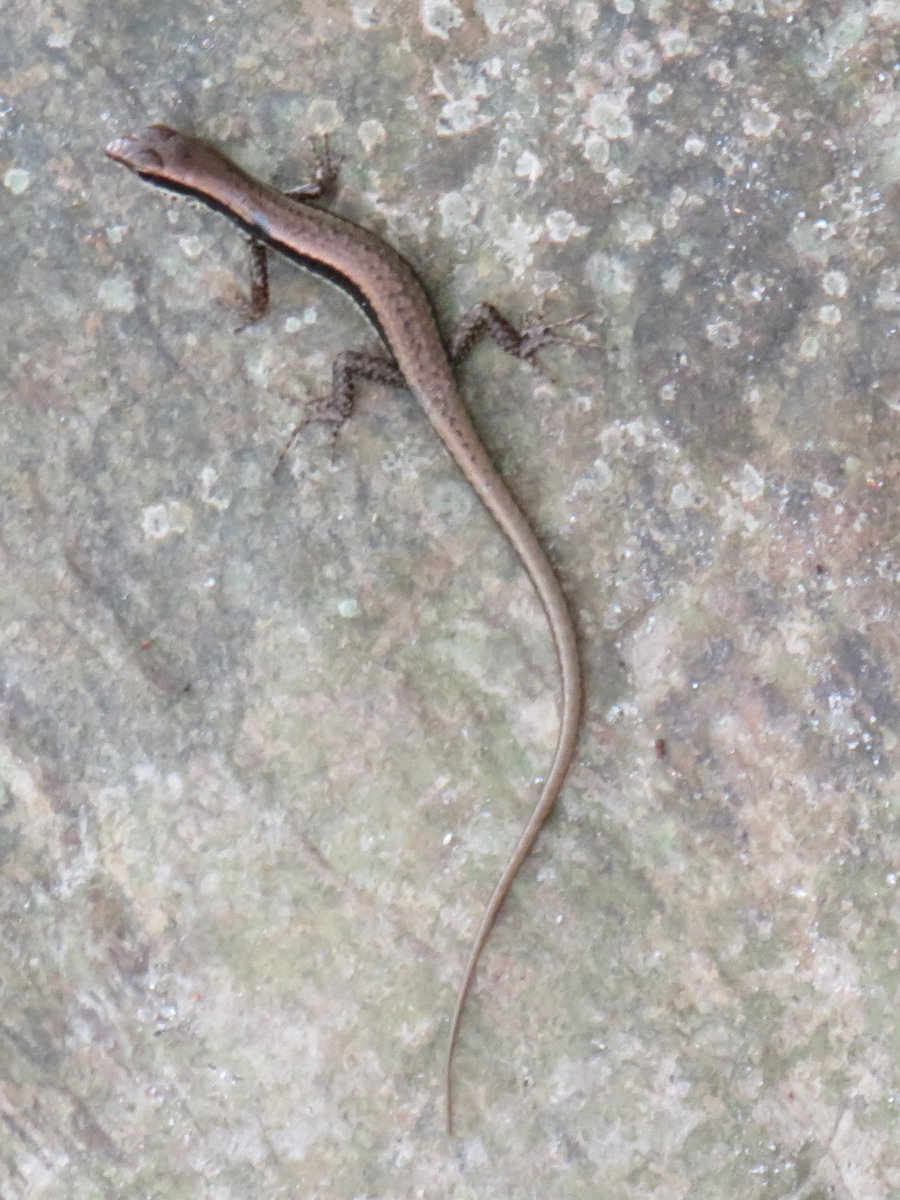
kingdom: Animalia
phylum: Chordata
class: Squamata
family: Scincidae
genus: Sphenomorphus
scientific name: Sphenomorphus indicus
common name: Himalayan forest skink
